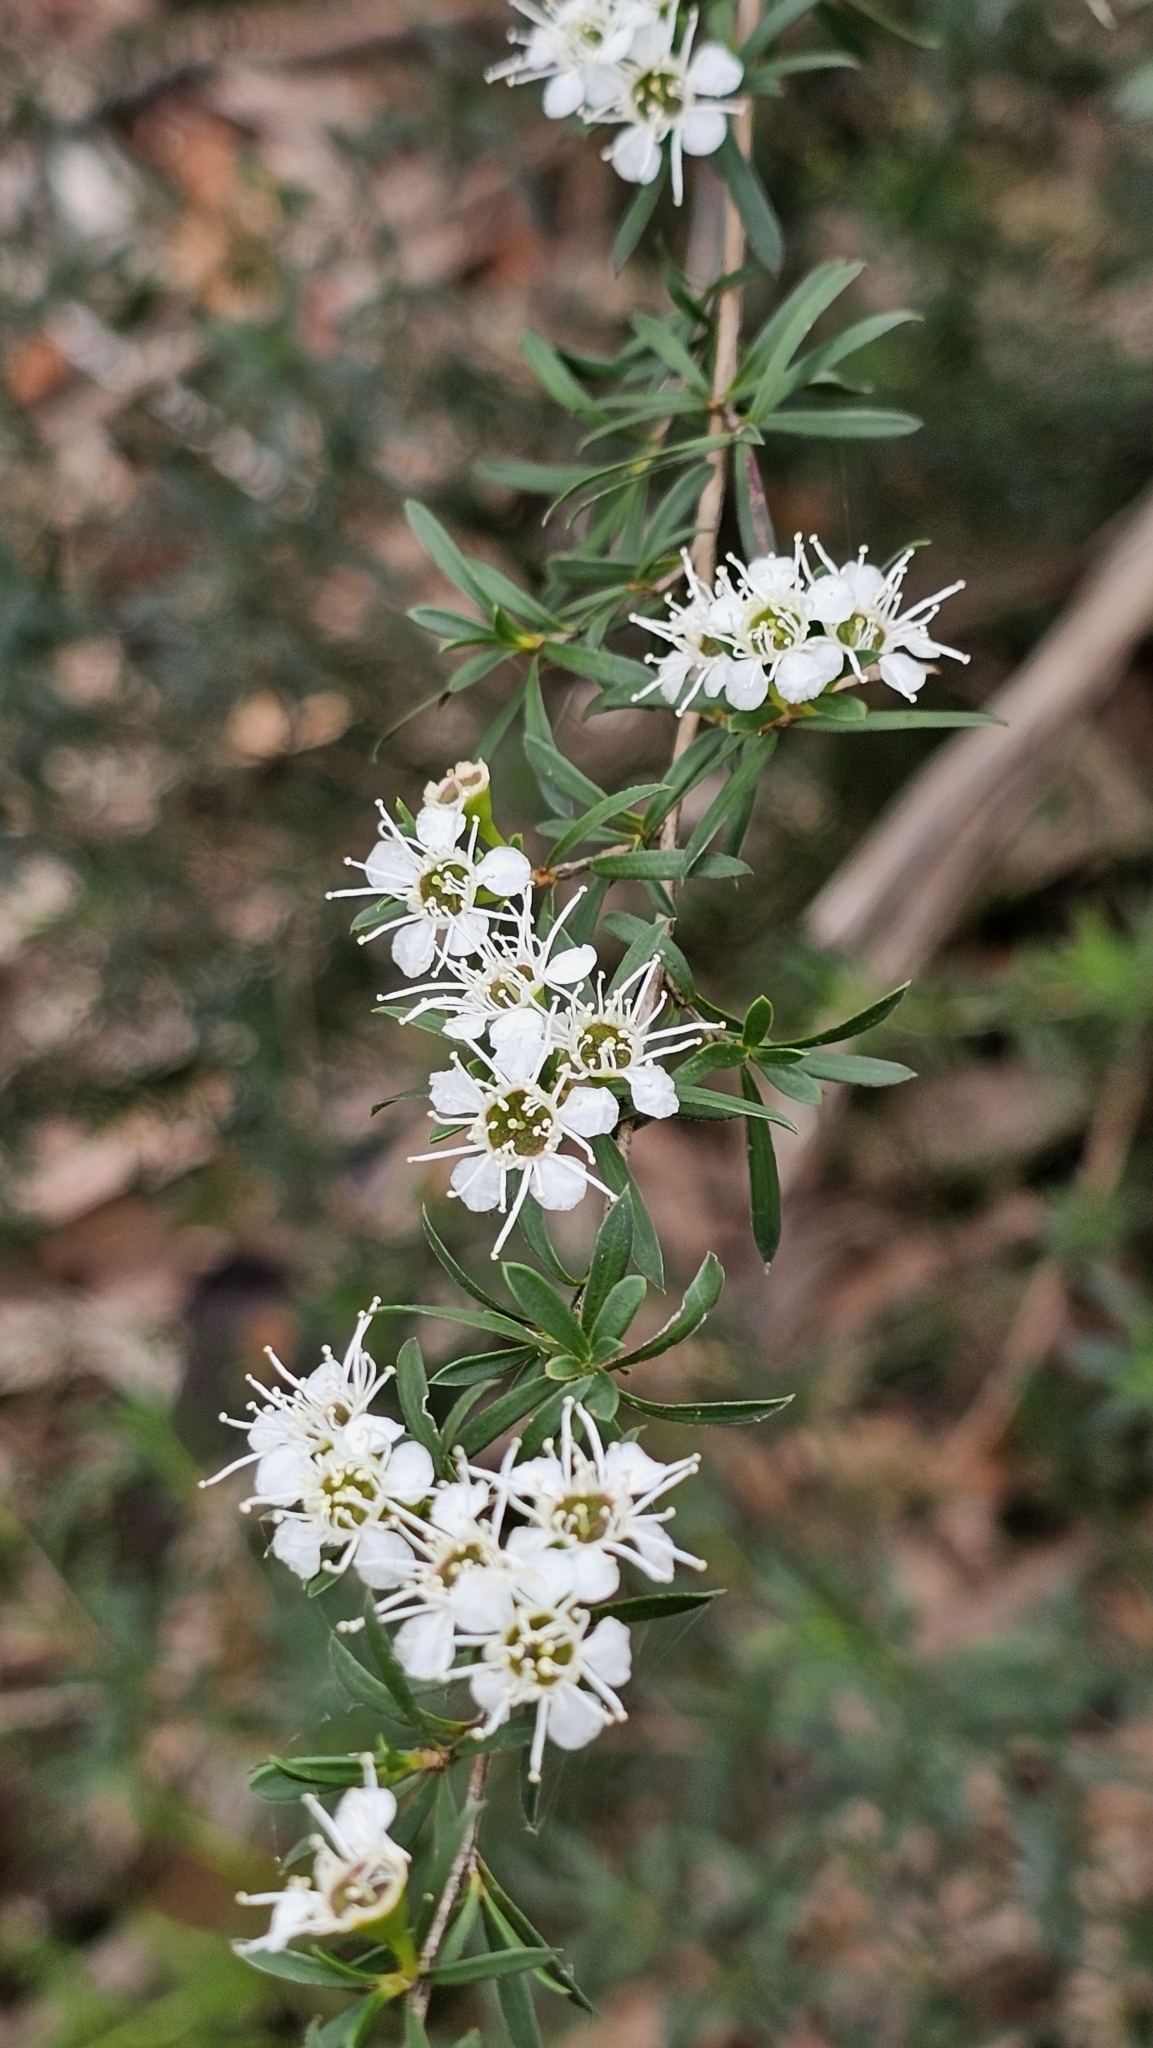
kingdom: Plantae
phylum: Tracheophyta
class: Magnoliopsida
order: Myrtales
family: Myrtaceae
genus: Kunzea
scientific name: Kunzea leptospermoides
